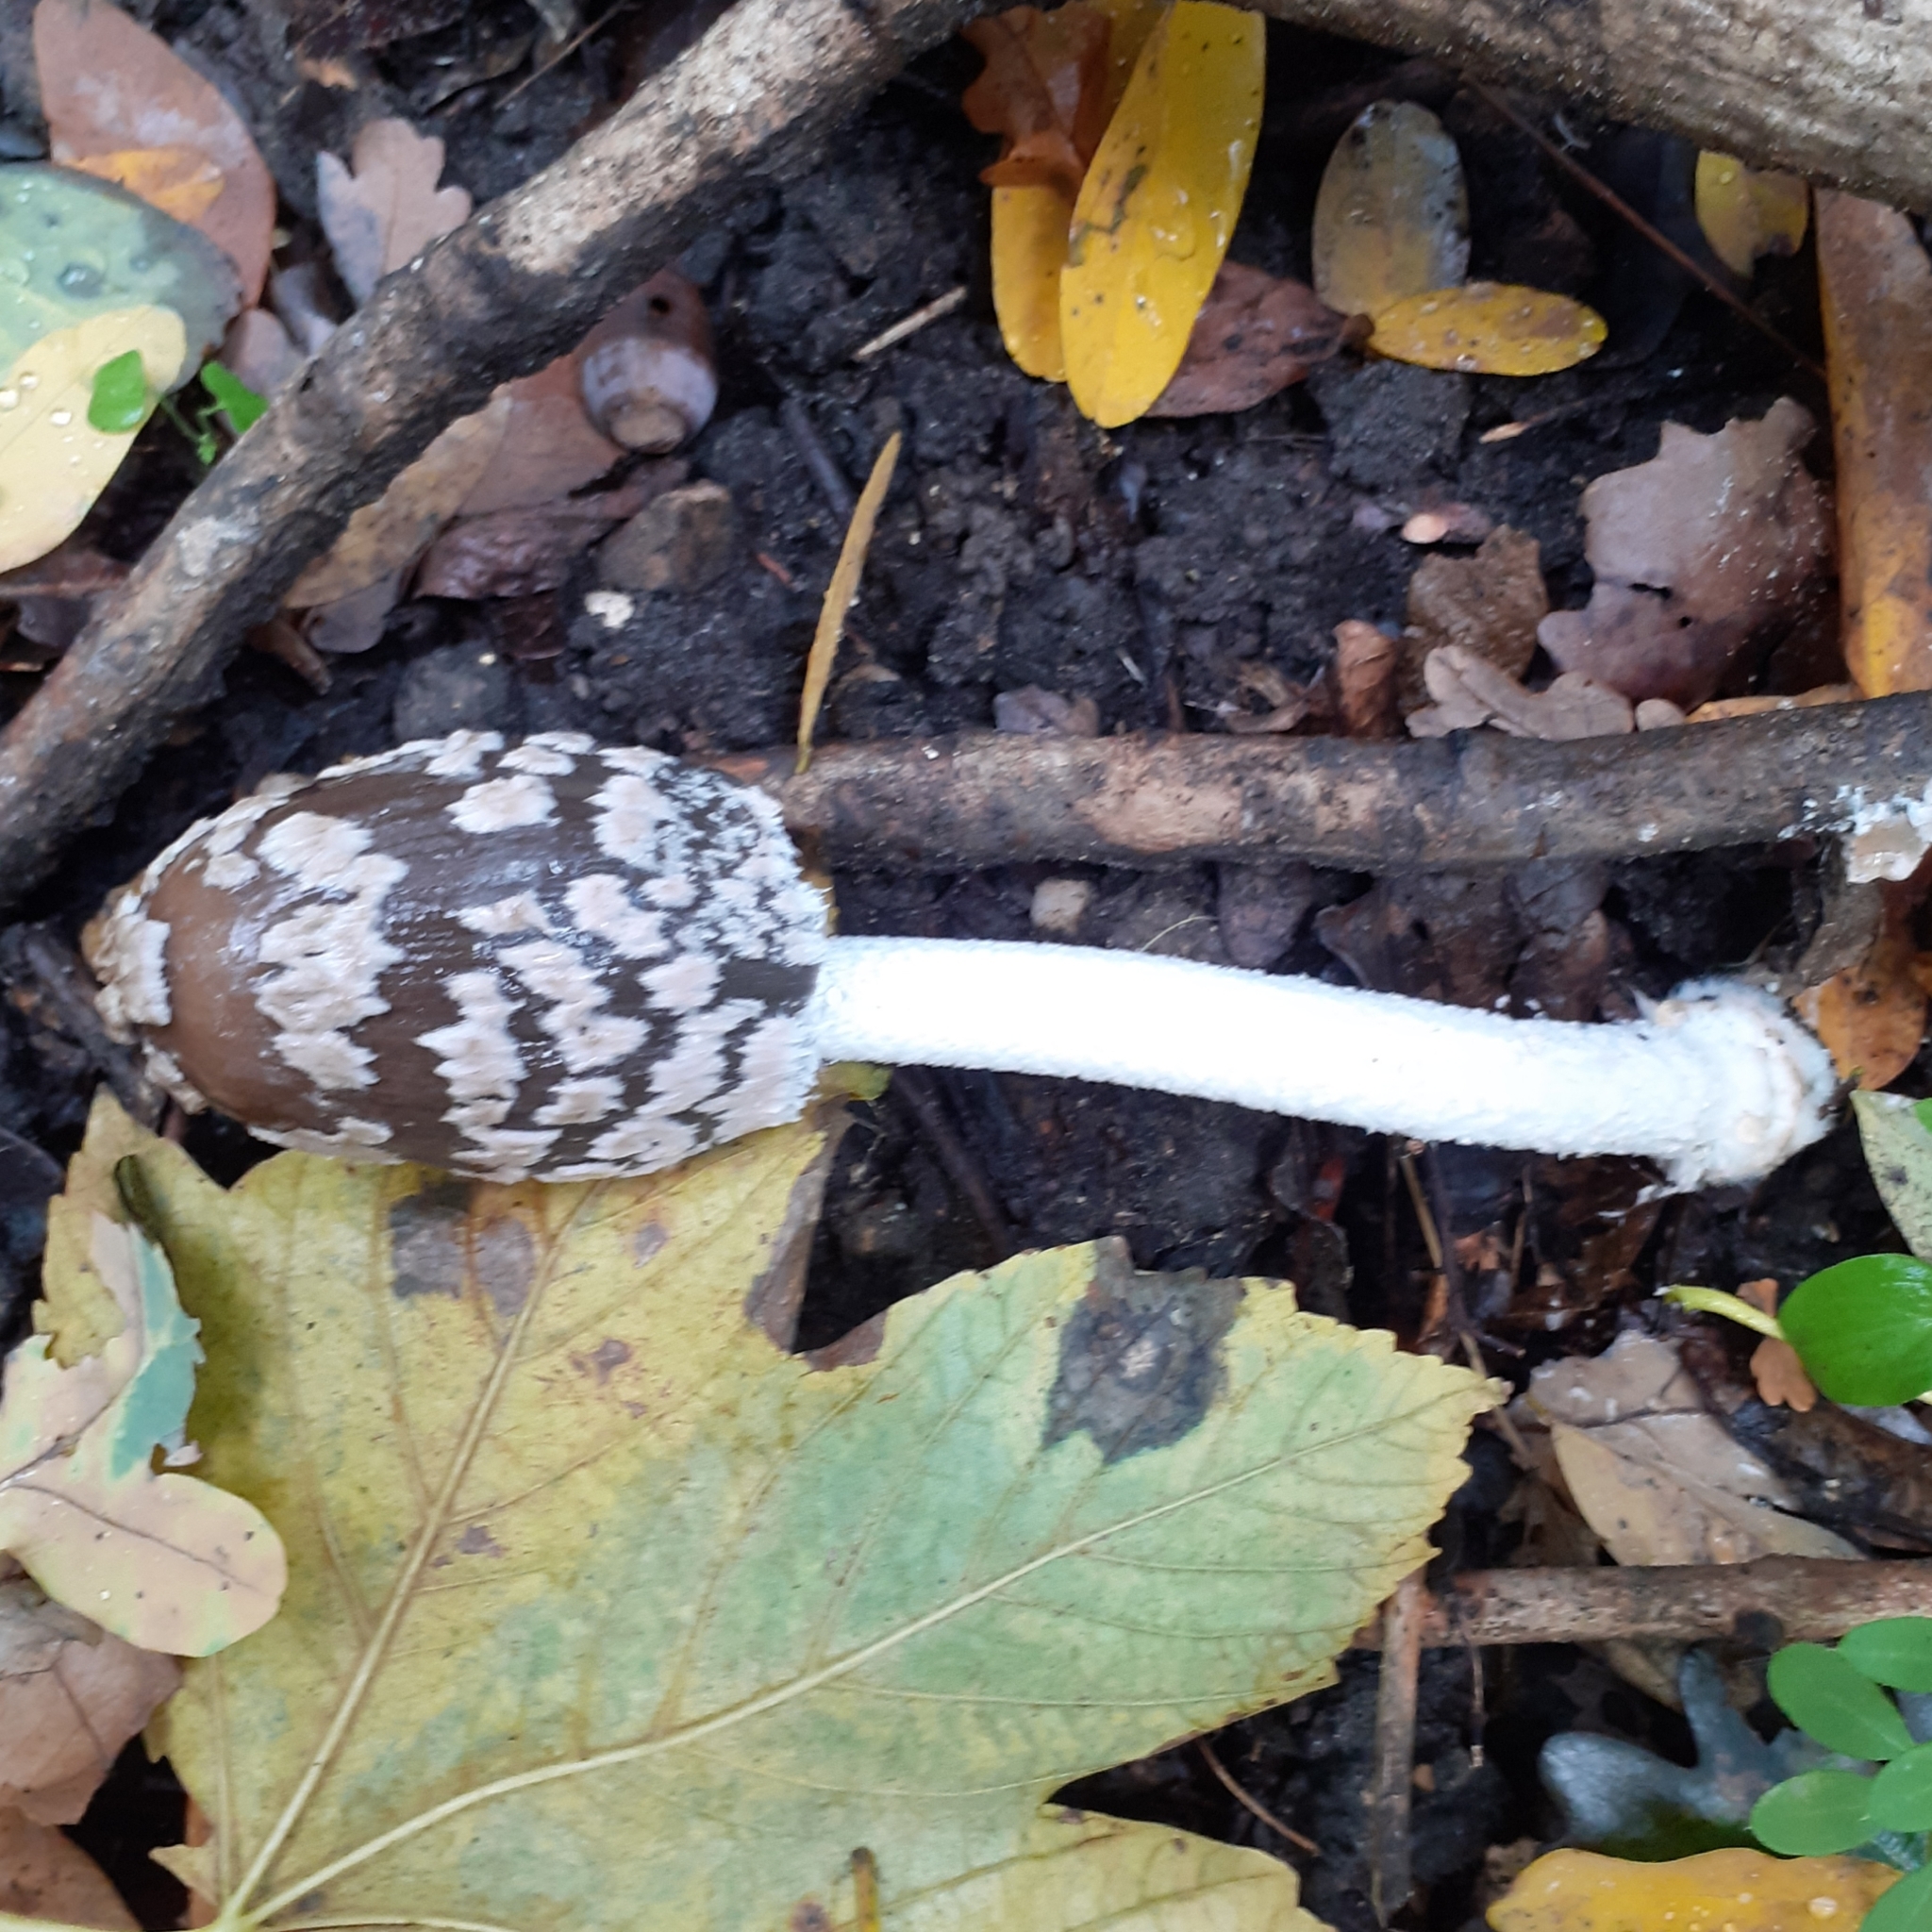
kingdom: Fungi
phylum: Basidiomycota
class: Agaricomycetes
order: Agaricales
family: Psathyrellaceae
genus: Coprinopsis
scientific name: Coprinopsis picacea
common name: Magpie inkcap
